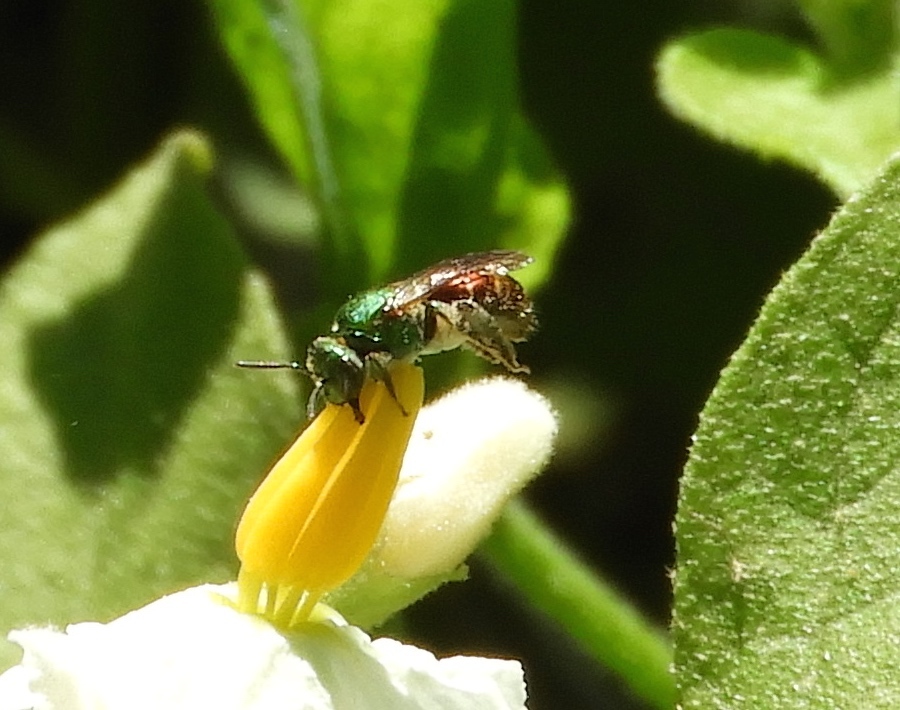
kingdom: Animalia
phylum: Arthropoda
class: Insecta
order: Hymenoptera
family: Halictidae
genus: Augochloropsis
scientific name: Augochloropsis
